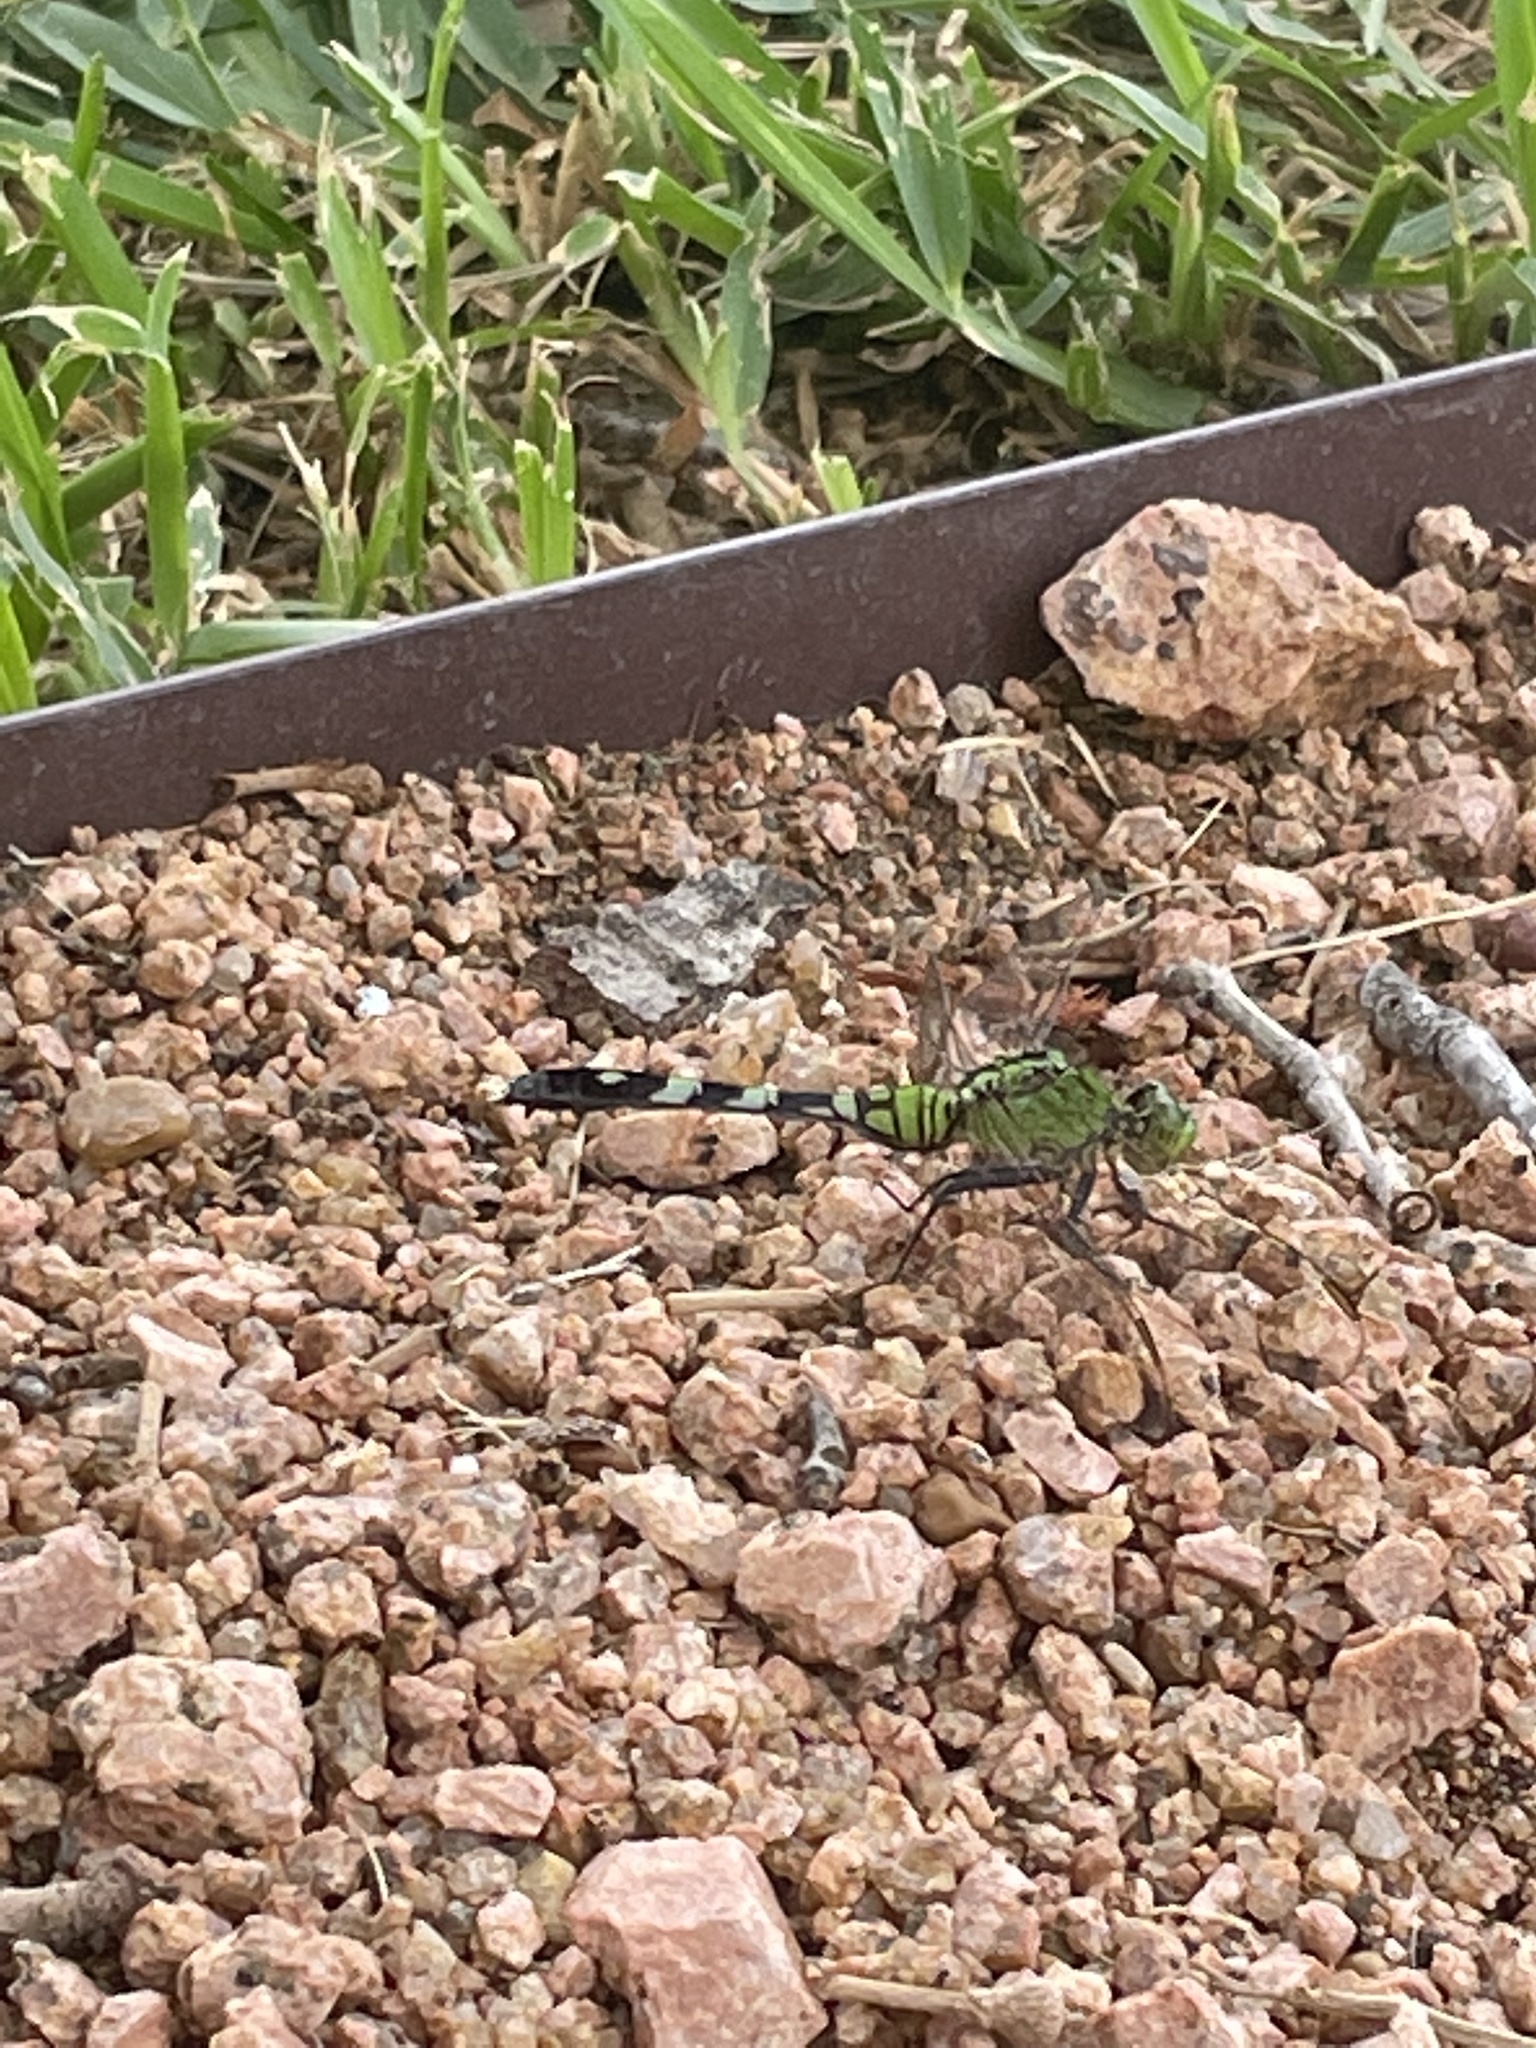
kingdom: Animalia
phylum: Arthropoda
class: Insecta
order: Odonata
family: Libellulidae
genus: Erythemis
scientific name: Erythemis simplicicollis
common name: Eastern pondhawk
